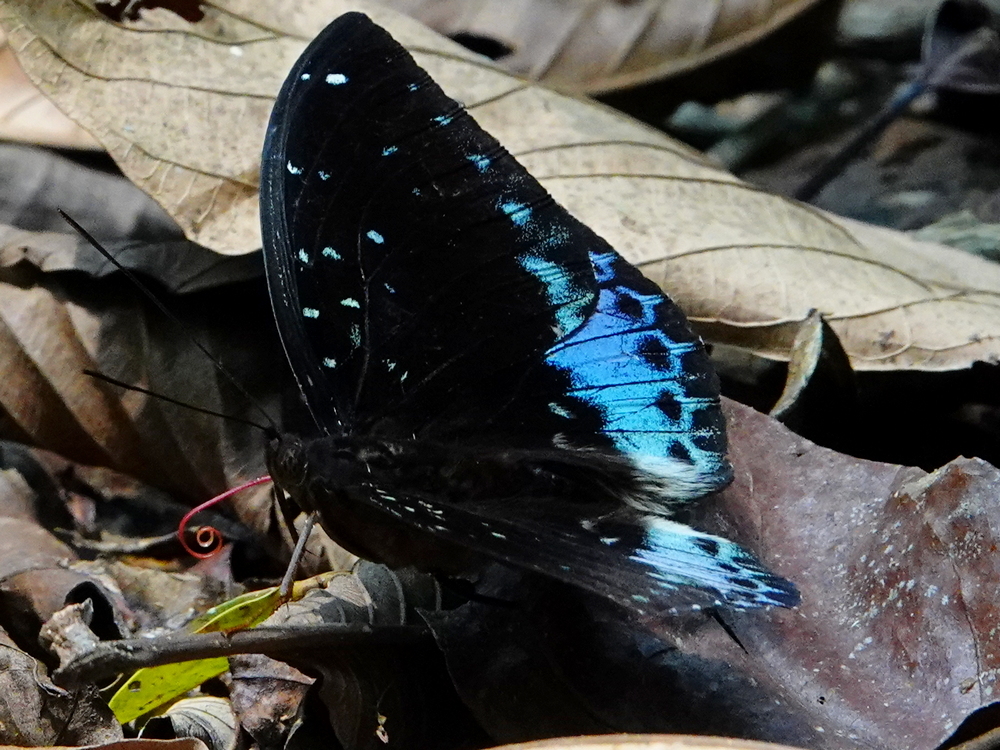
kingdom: Animalia
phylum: Arthropoda
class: Insecta
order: Lepidoptera
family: Nymphalidae
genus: Lexias
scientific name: Lexias
